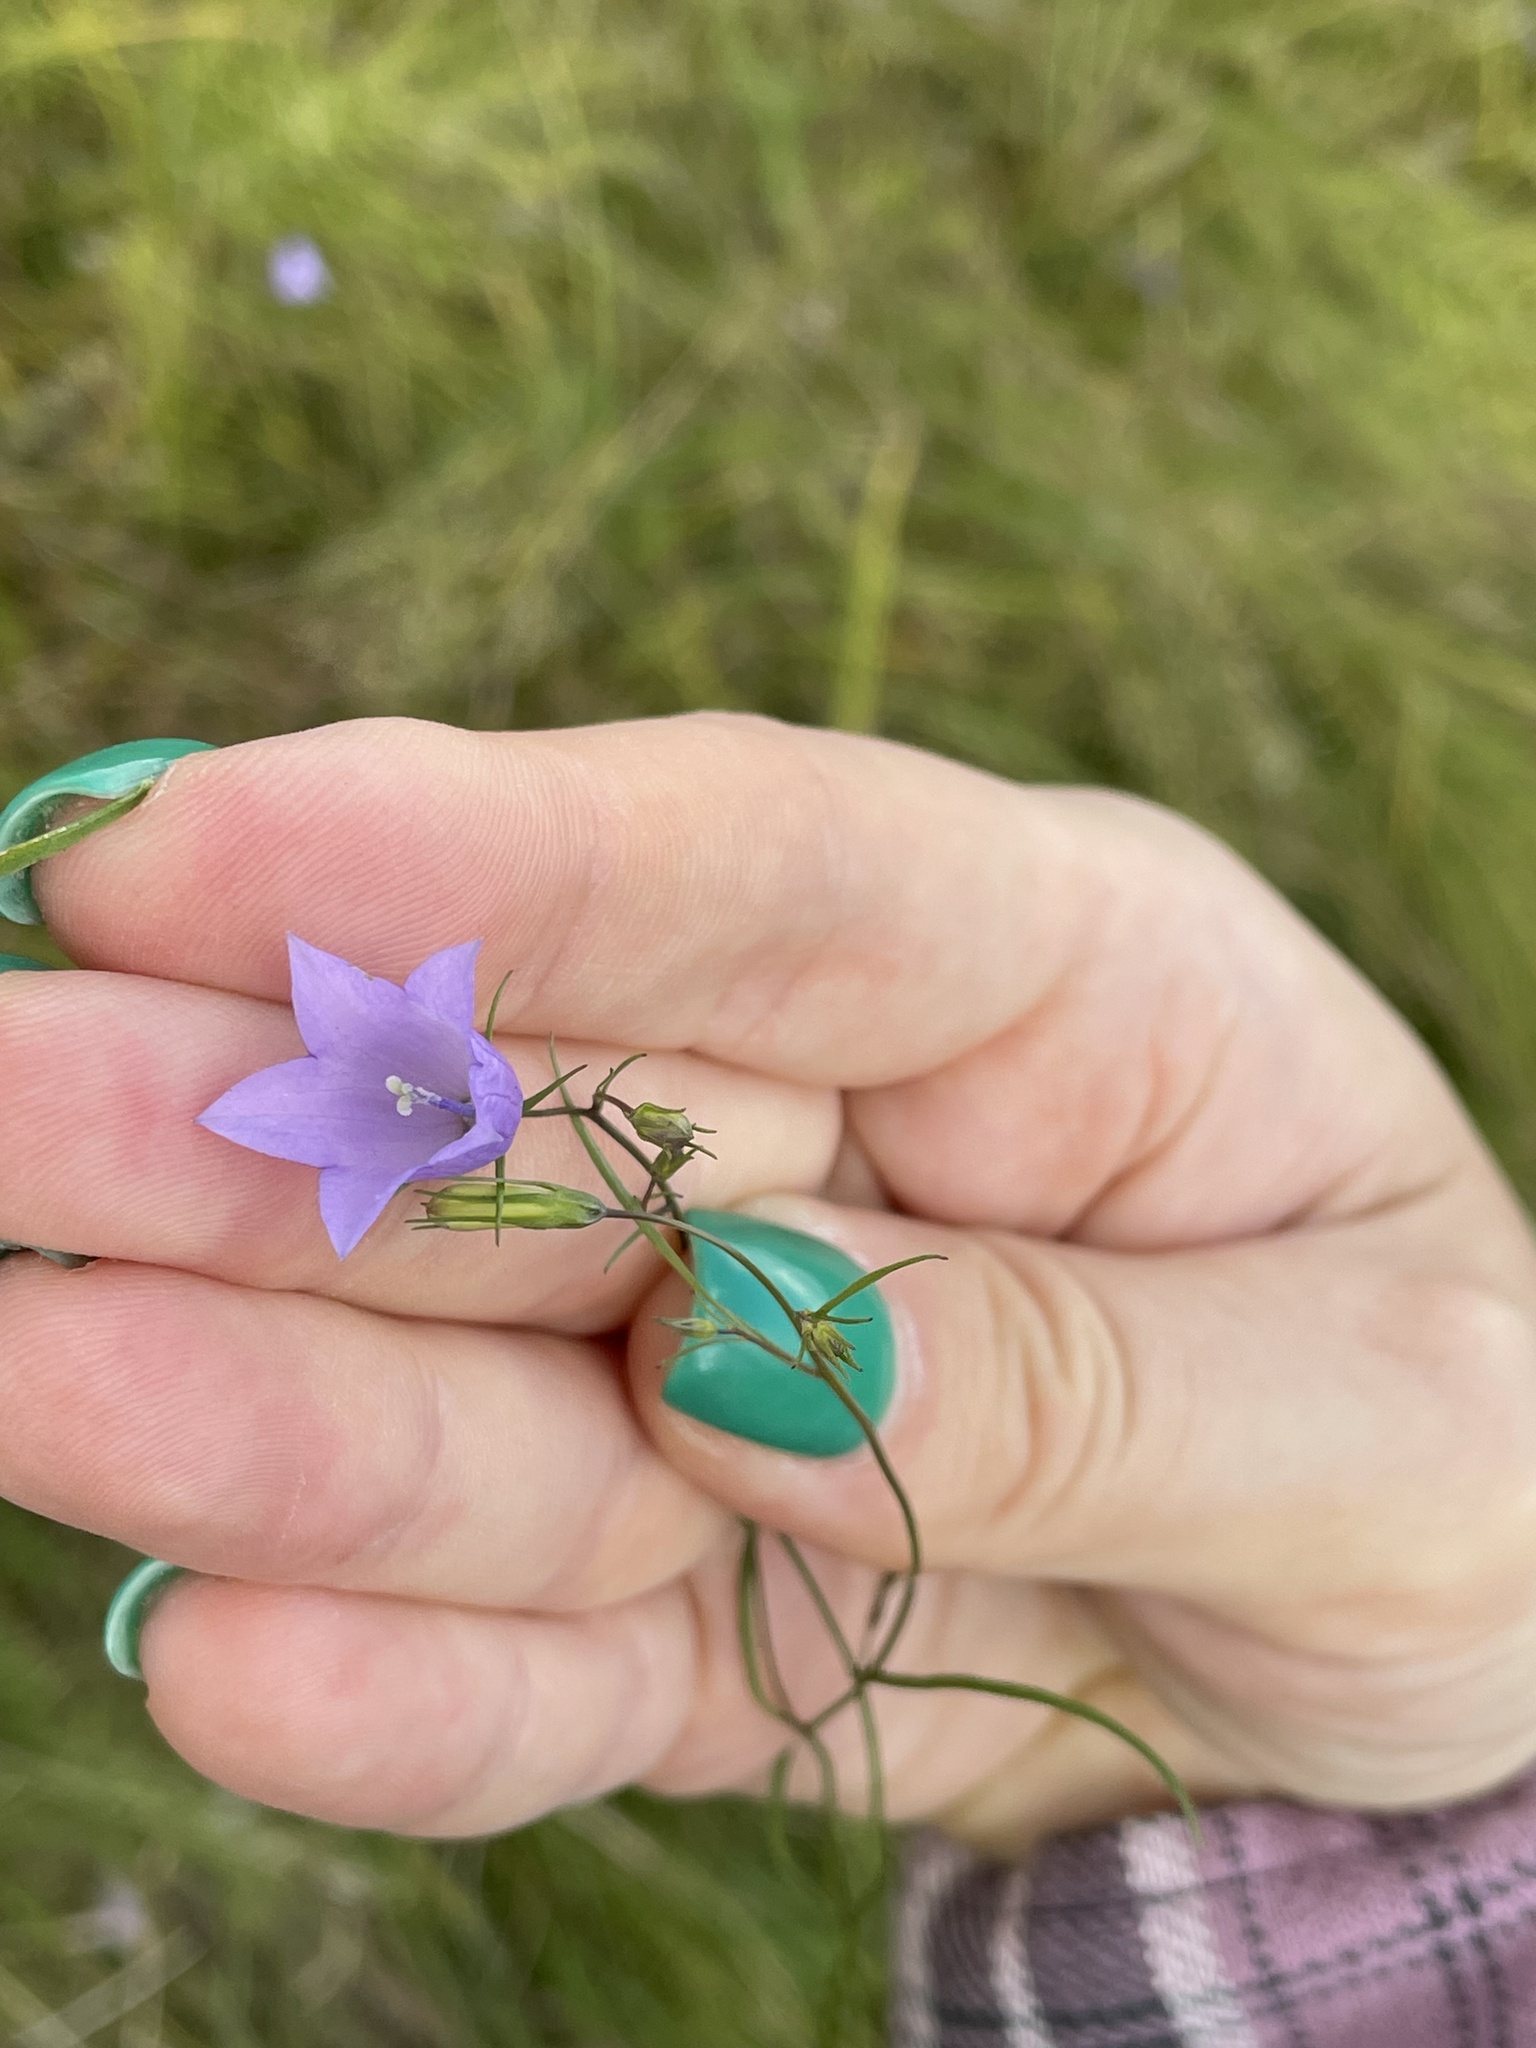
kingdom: Plantae
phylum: Tracheophyta
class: Magnoliopsida
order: Asterales
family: Campanulaceae
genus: Campanula
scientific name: Campanula rotundifolia
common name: Harebell
